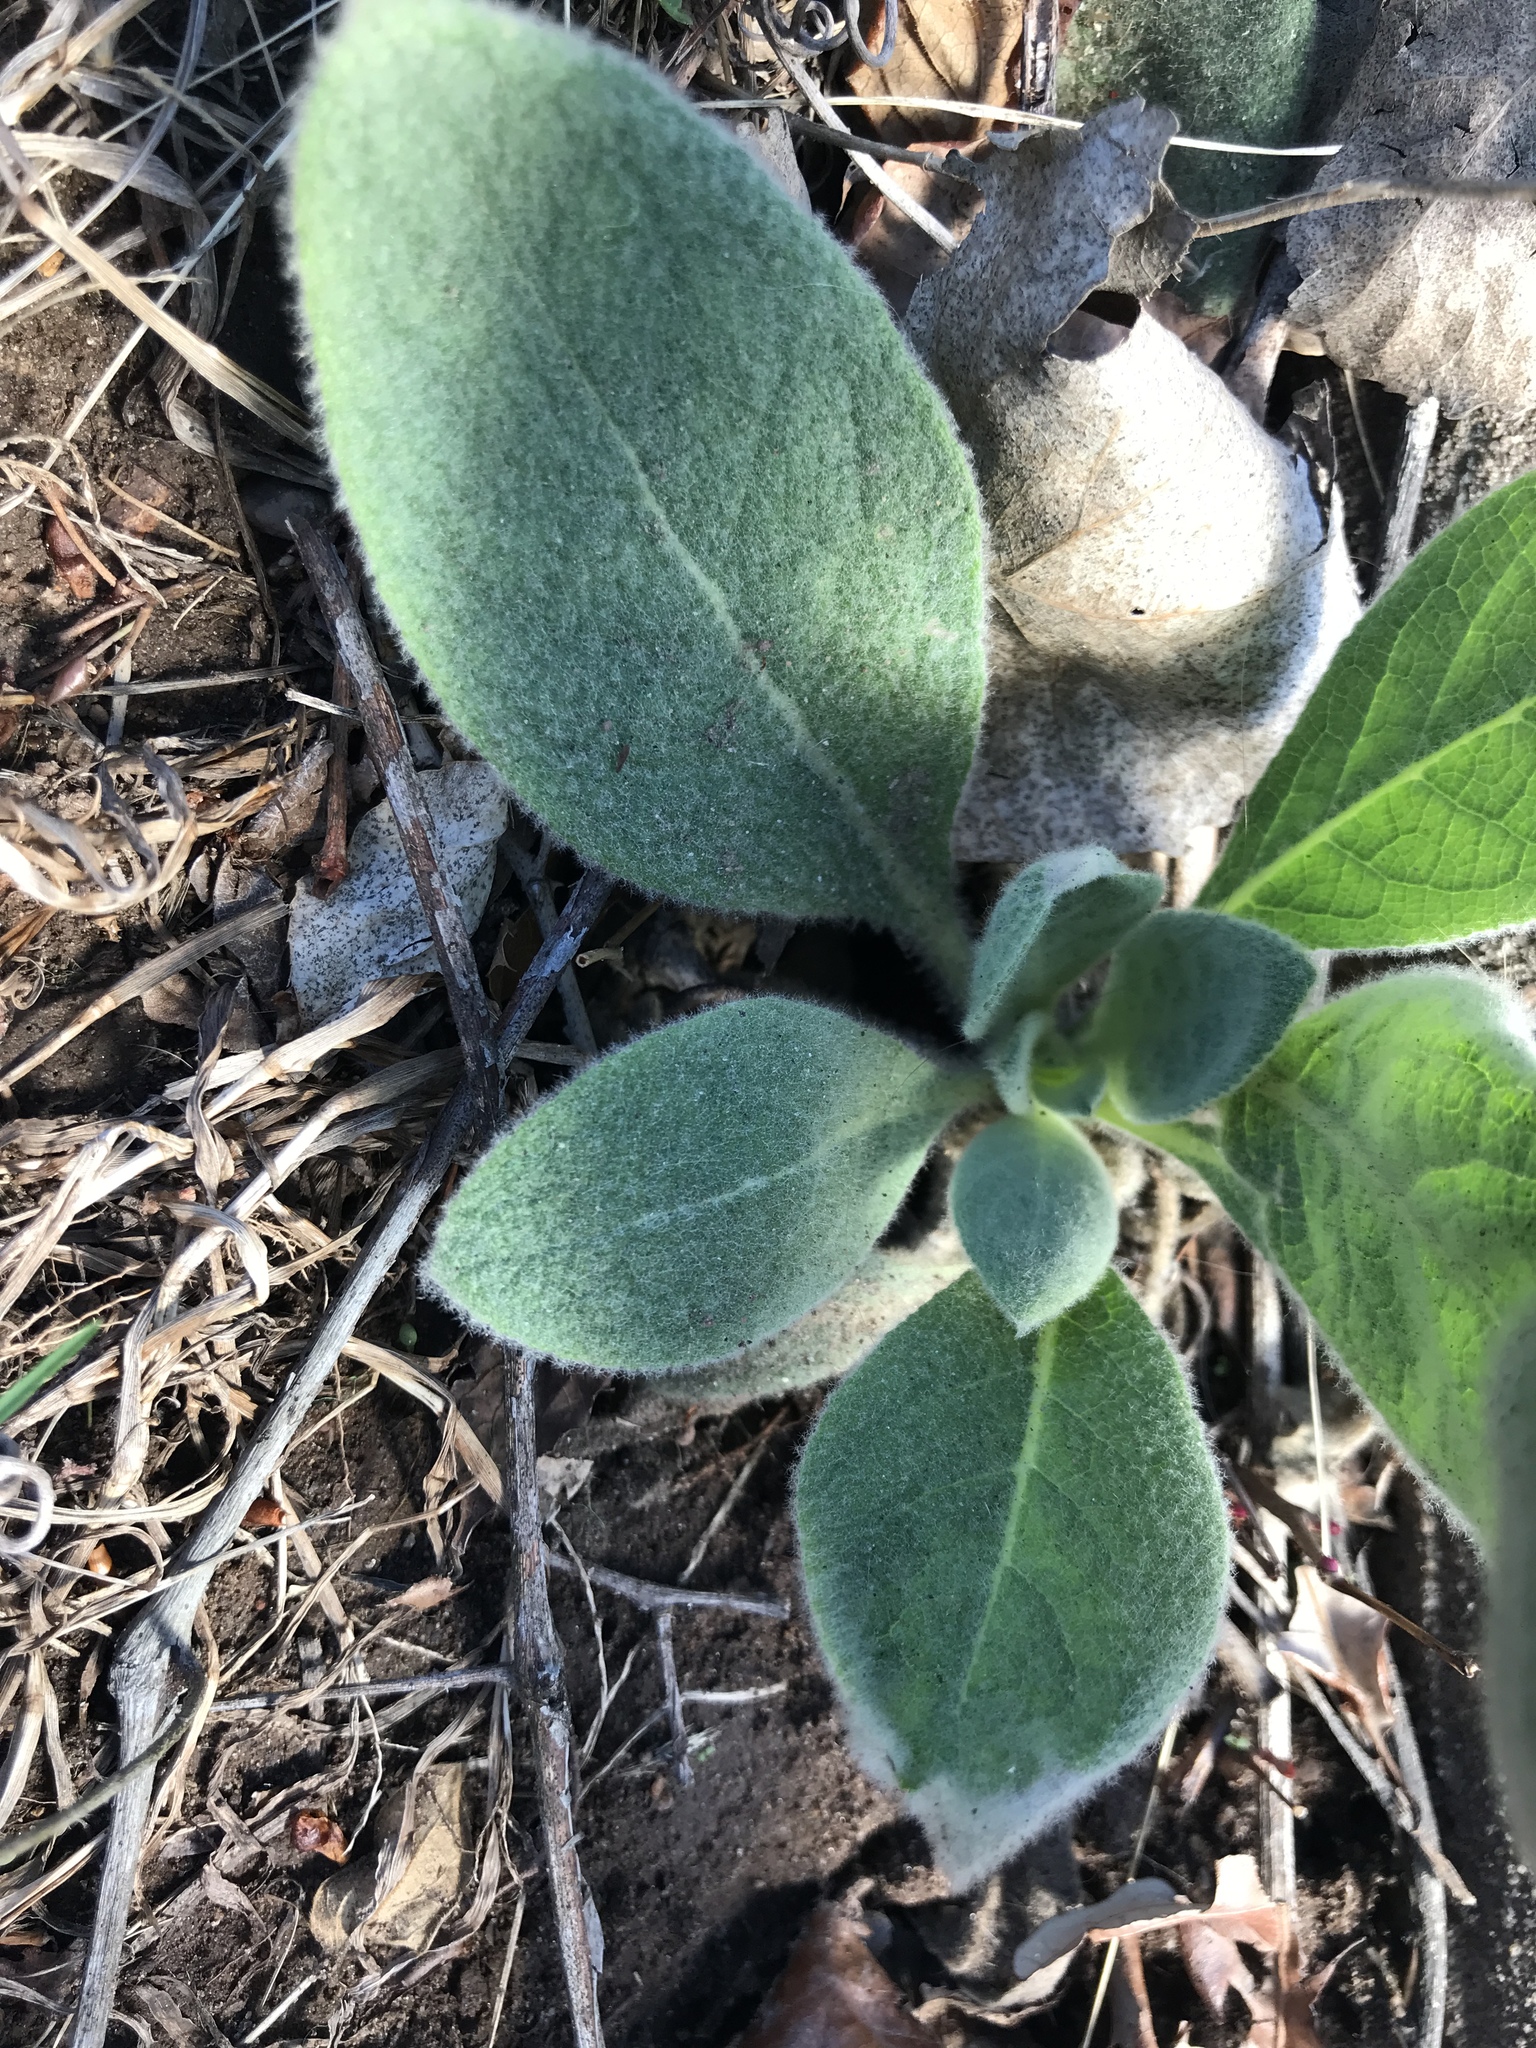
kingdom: Plantae
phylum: Tracheophyta
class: Magnoliopsida
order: Lamiales
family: Scrophulariaceae
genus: Verbascum
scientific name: Verbascum thapsus
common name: Common mullein
